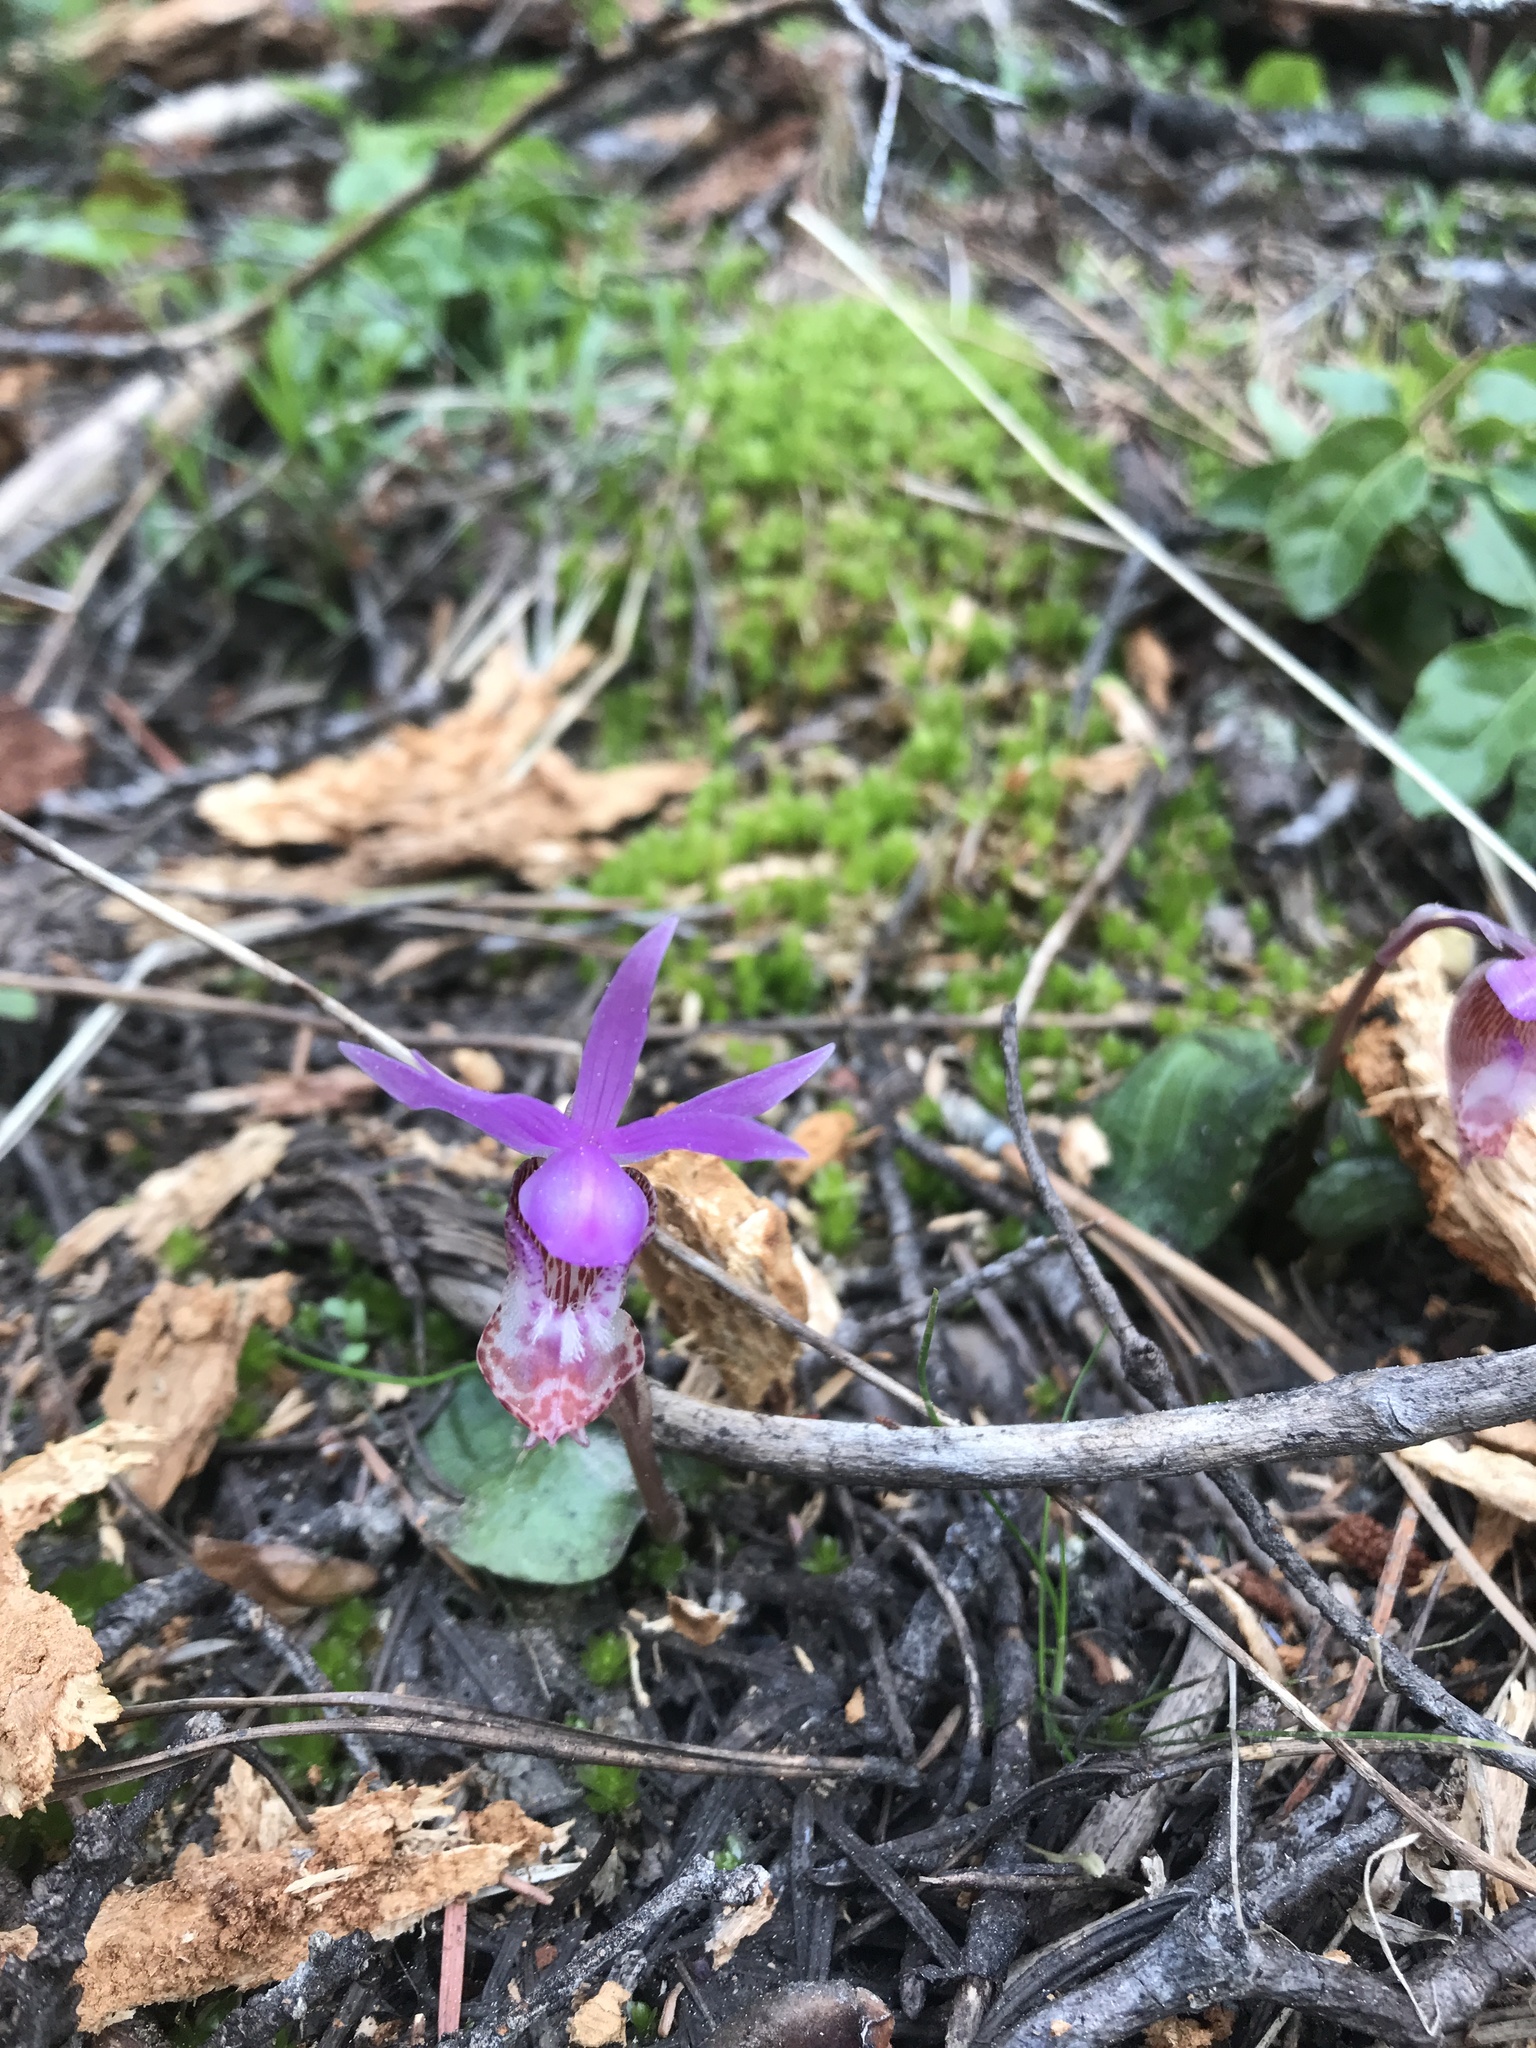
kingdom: Plantae
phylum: Tracheophyta
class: Liliopsida
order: Asparagales
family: Orchidaceae
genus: Calypso
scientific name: Calypso bulbosa
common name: Calypso
